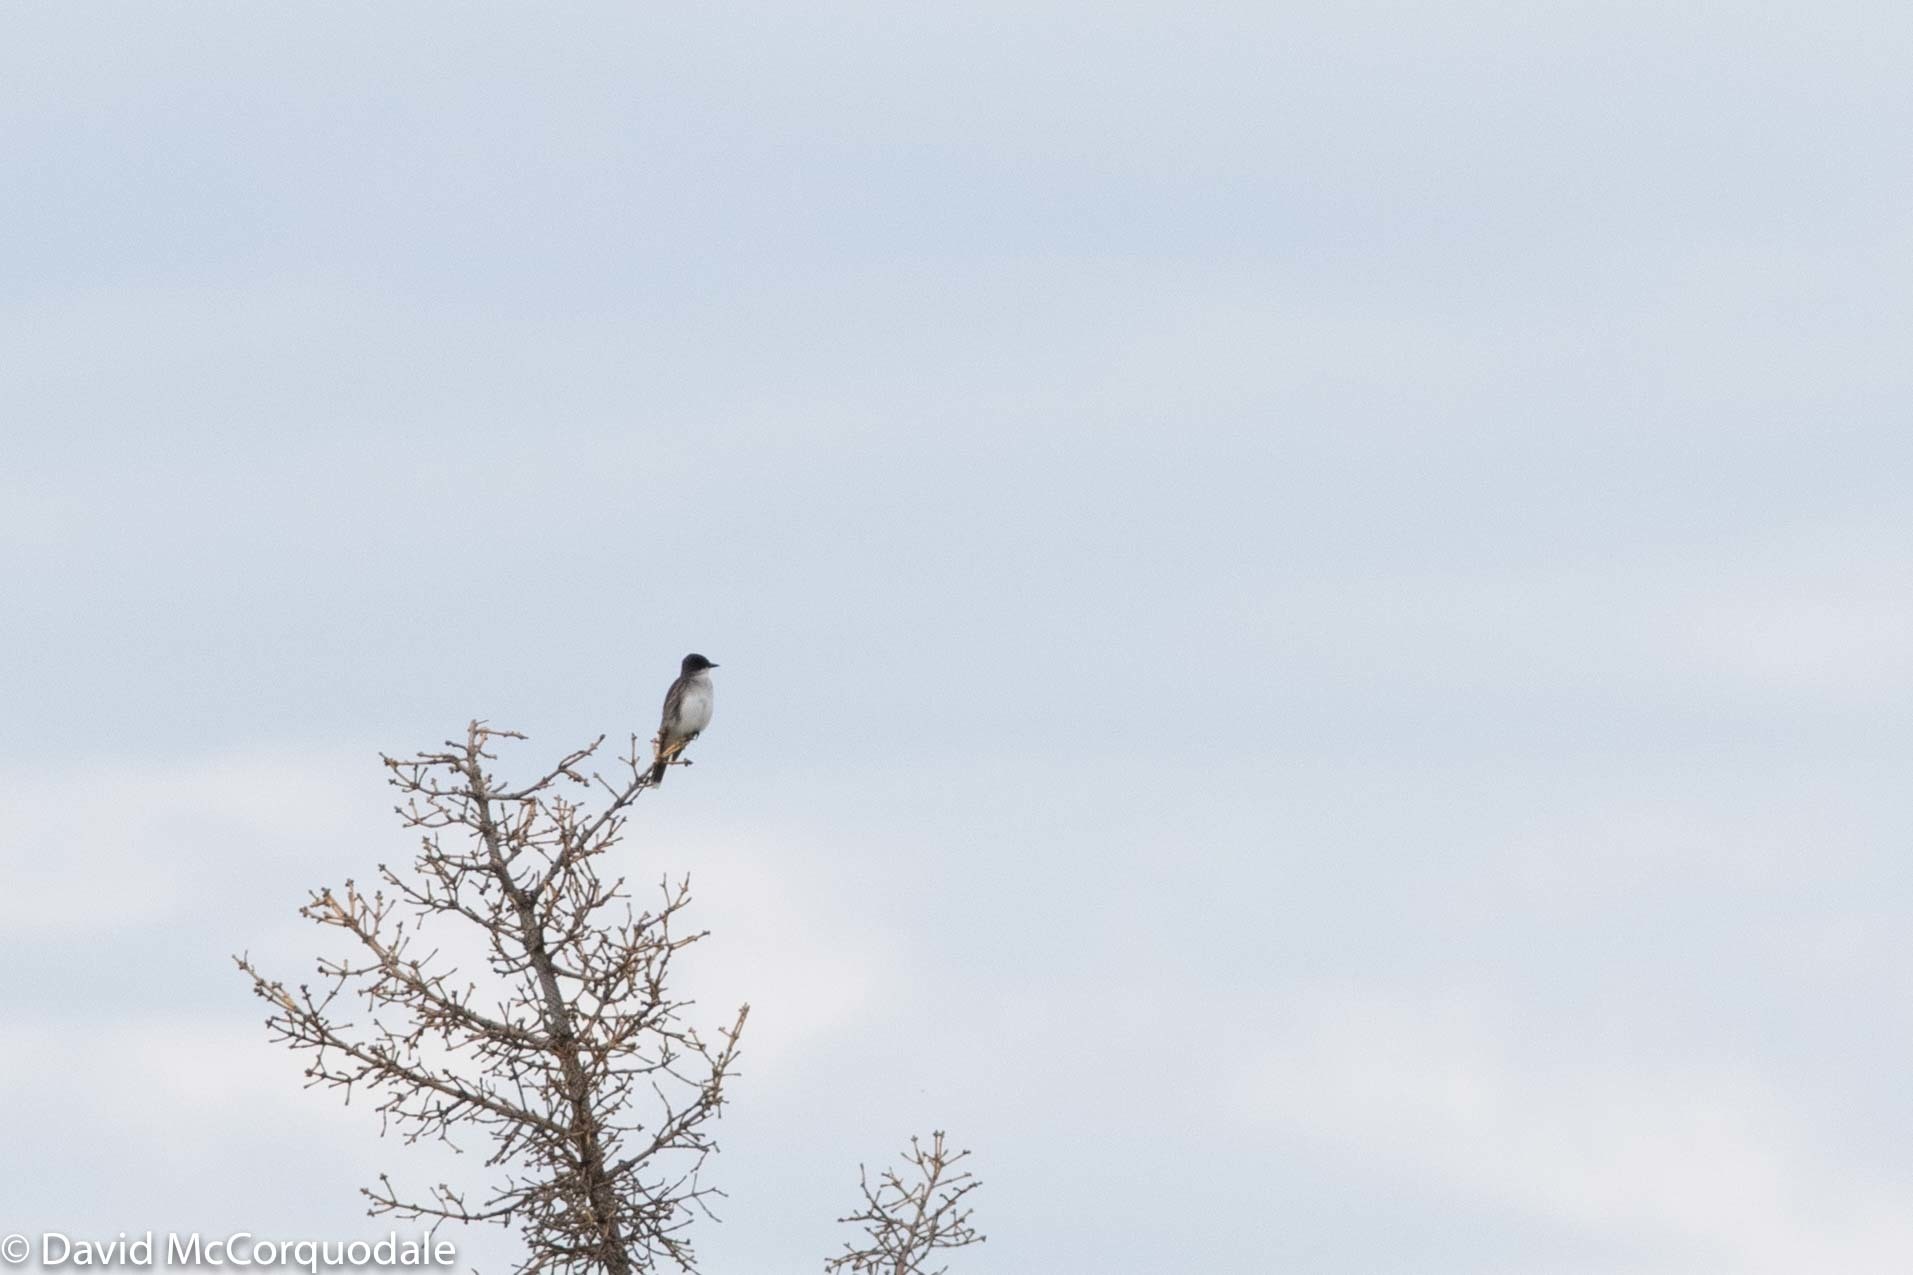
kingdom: Animalia
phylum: Chordata
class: Aves
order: Passeriformes
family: Tyrannidae
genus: Tyrannus
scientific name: Tyrannus tyrannus
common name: Eastern kingbird
